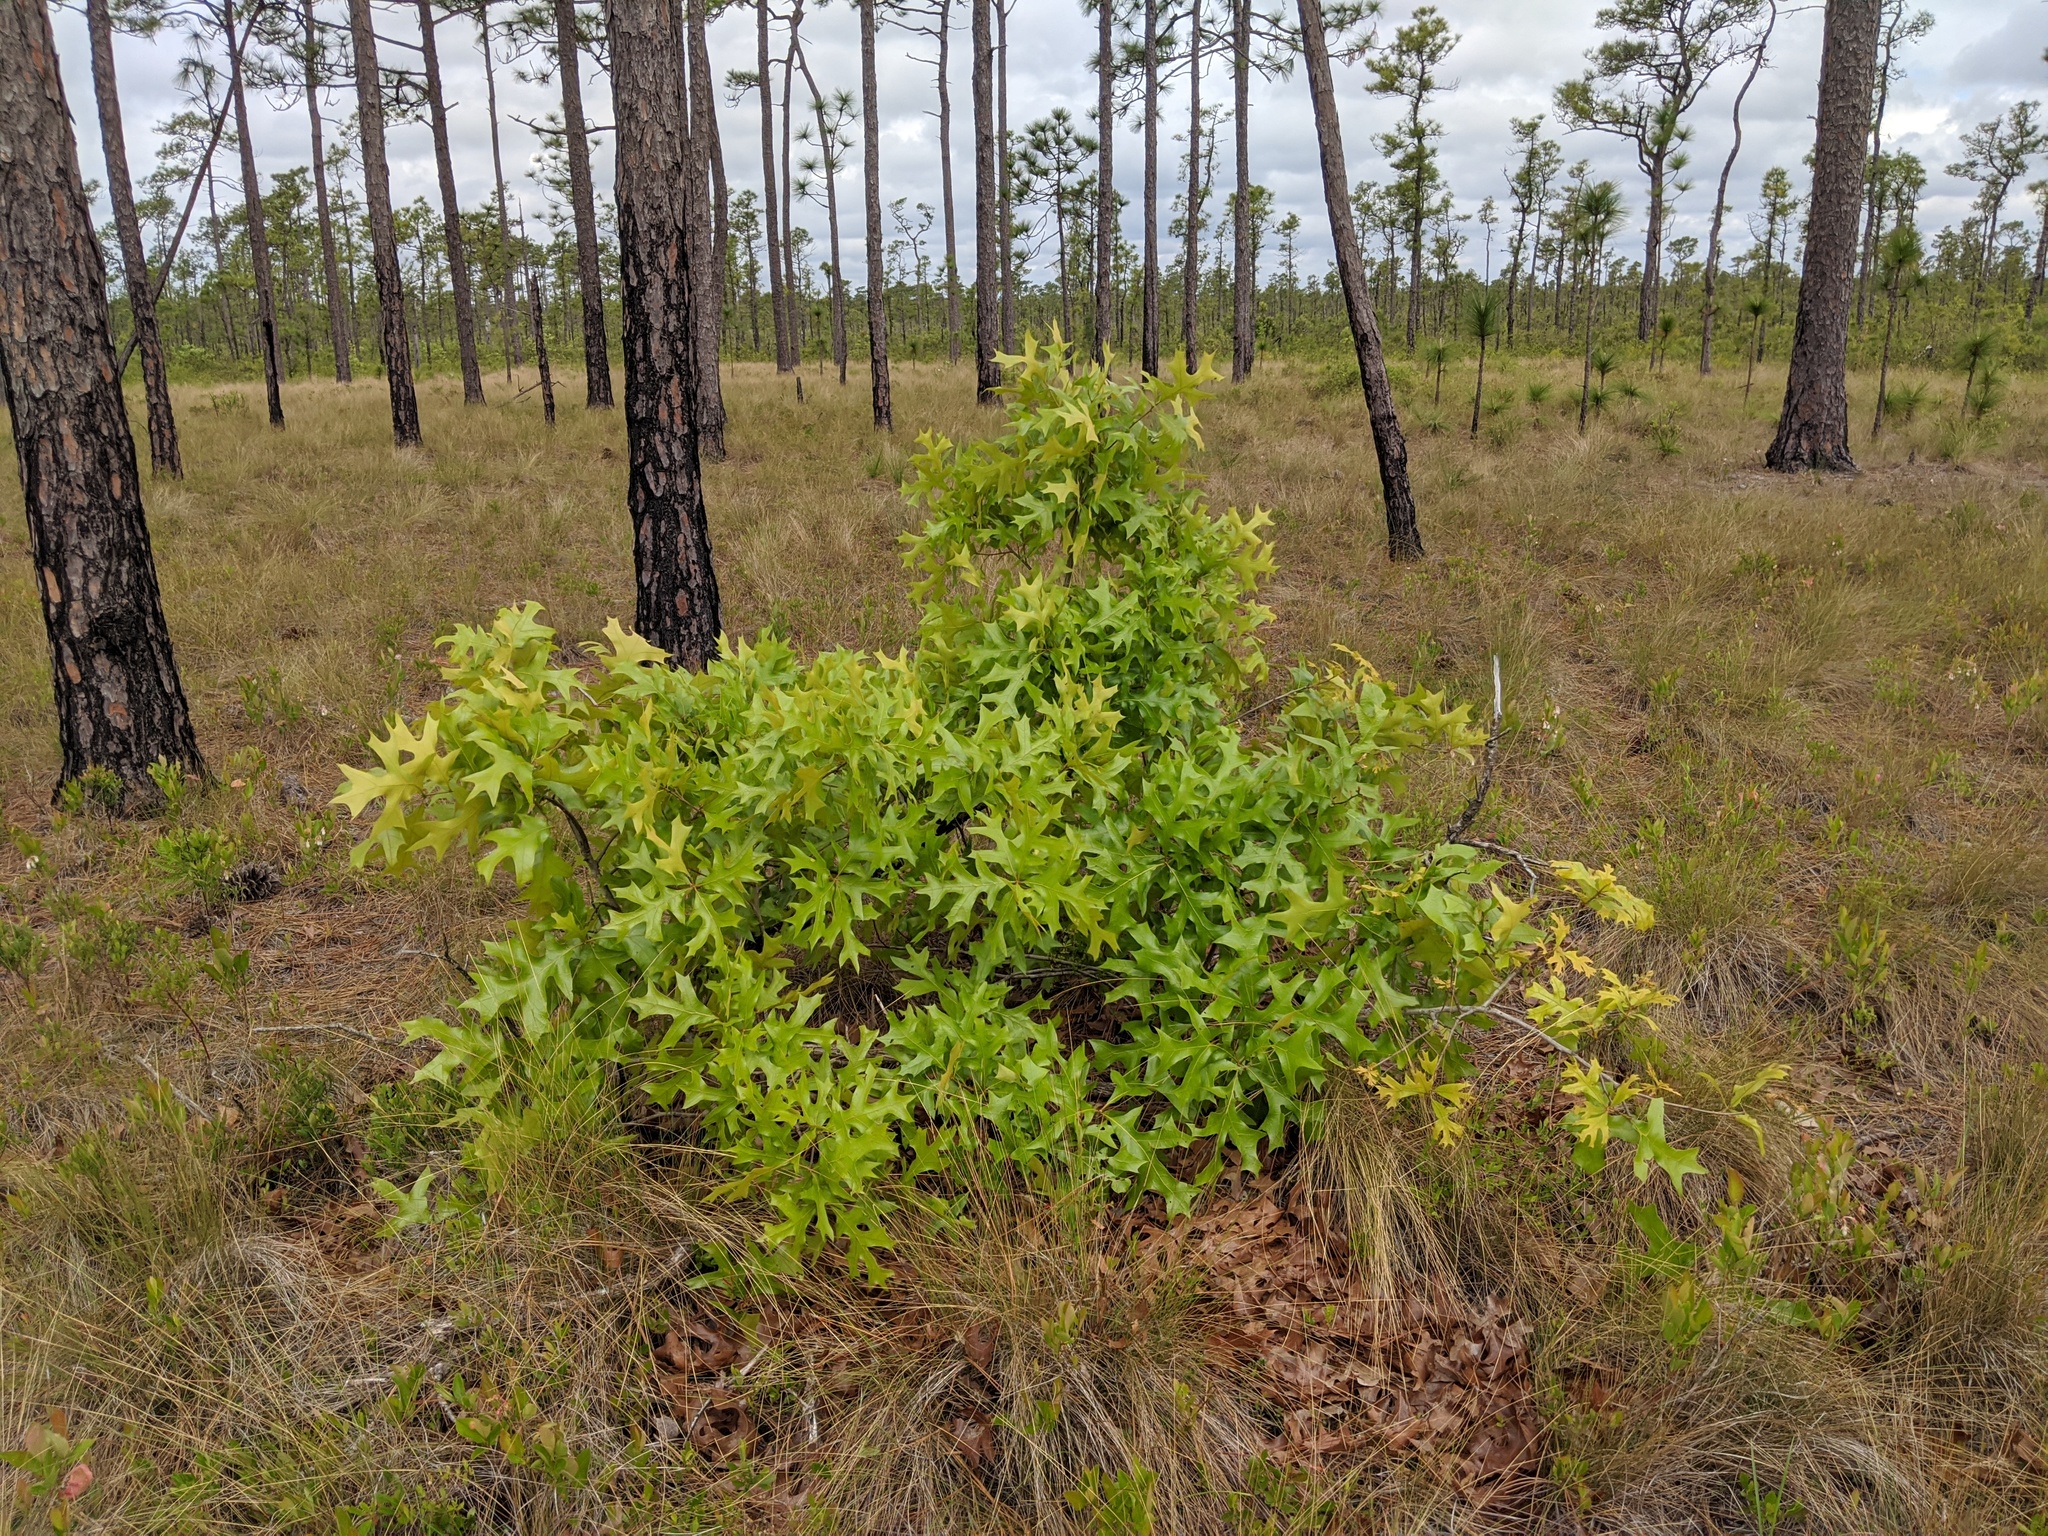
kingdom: Plantae
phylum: Tracheophyta
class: Magnoliopsida
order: Fagales
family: Fagaceae
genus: Quercus
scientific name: Quercus laevis
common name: Turkey oak
